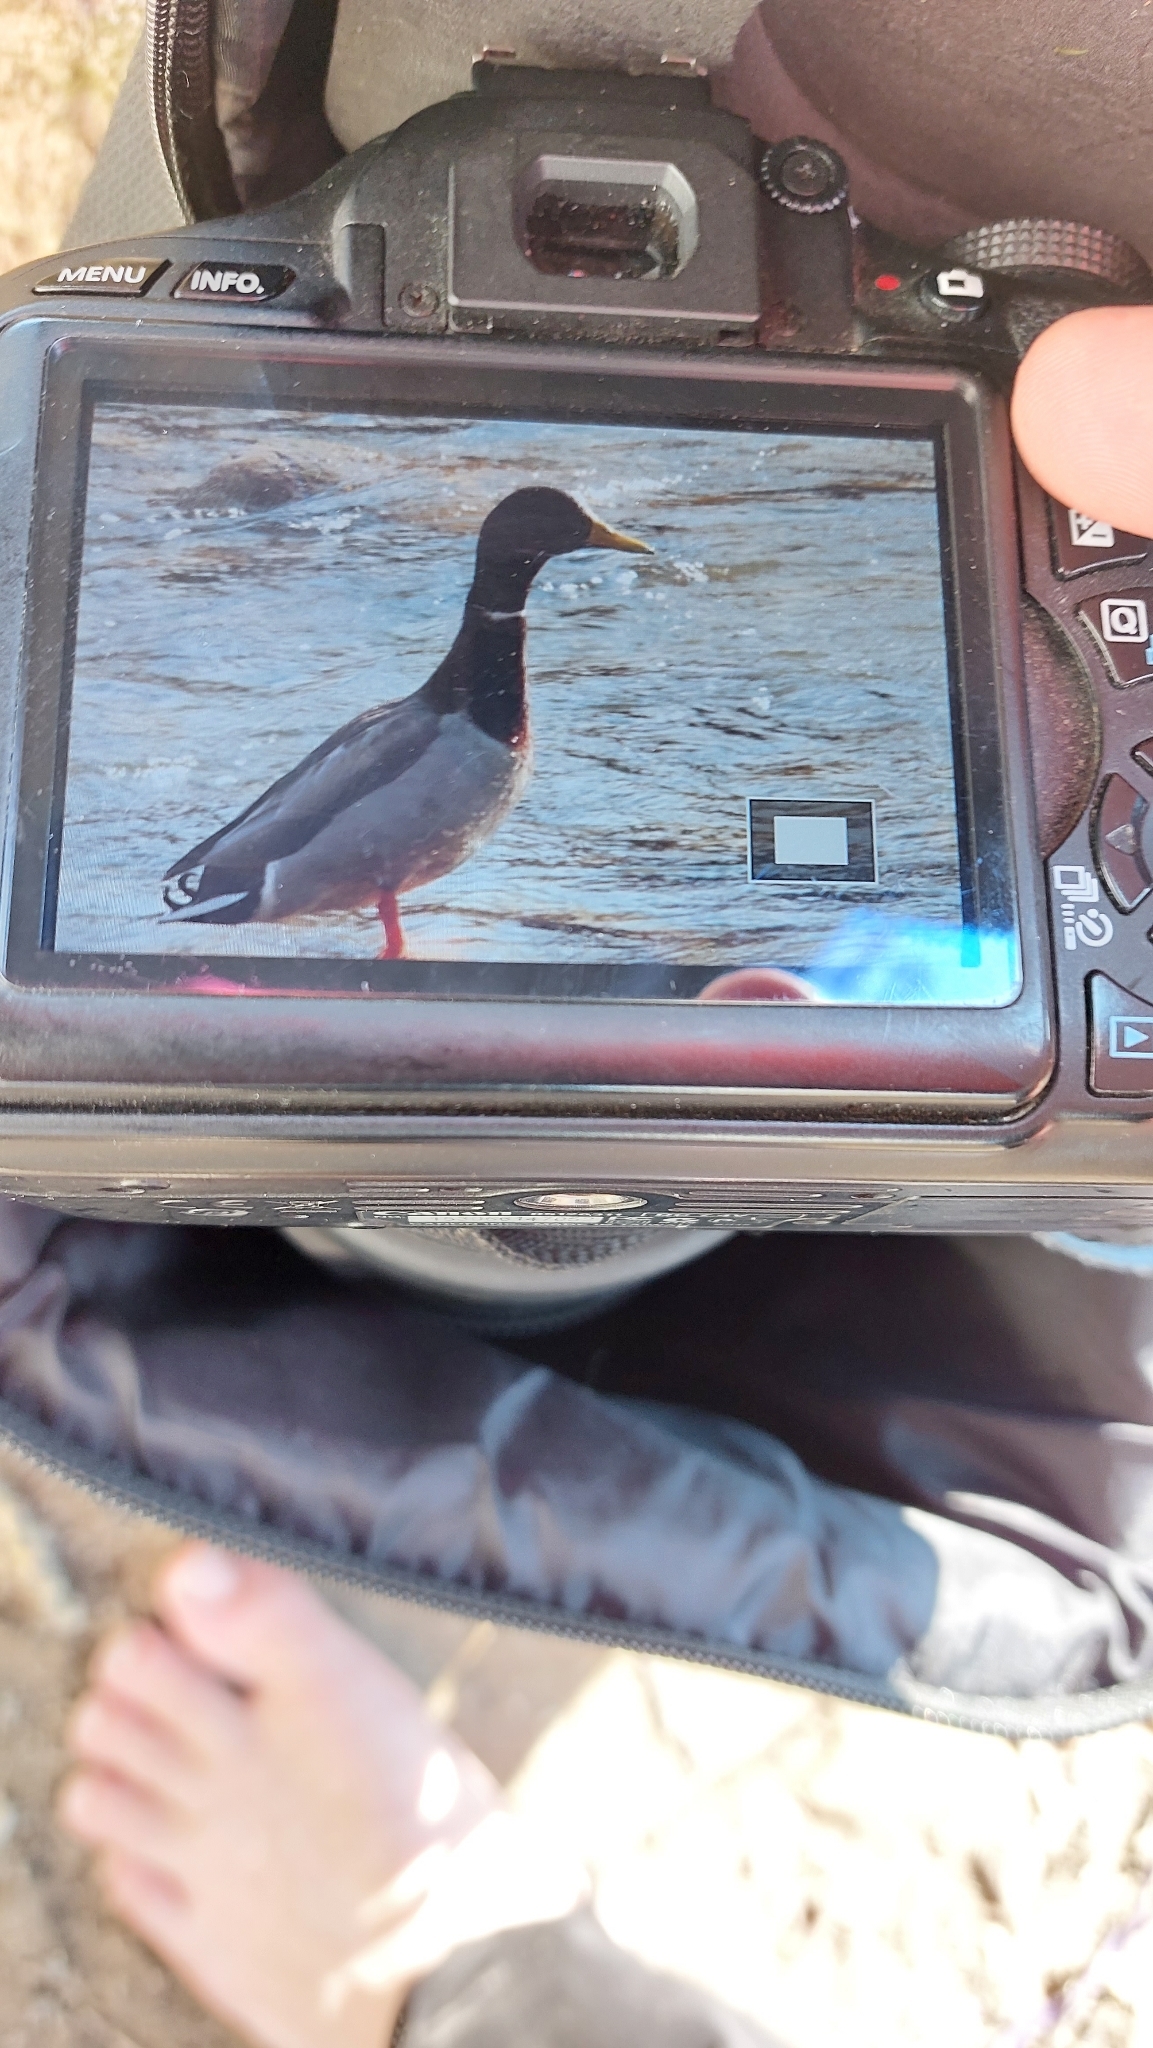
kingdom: Animalia
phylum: Chordata
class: Aves
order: Anseriformes
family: Anatidae
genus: Anas
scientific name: Anas platyrhynchos
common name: Mallard
